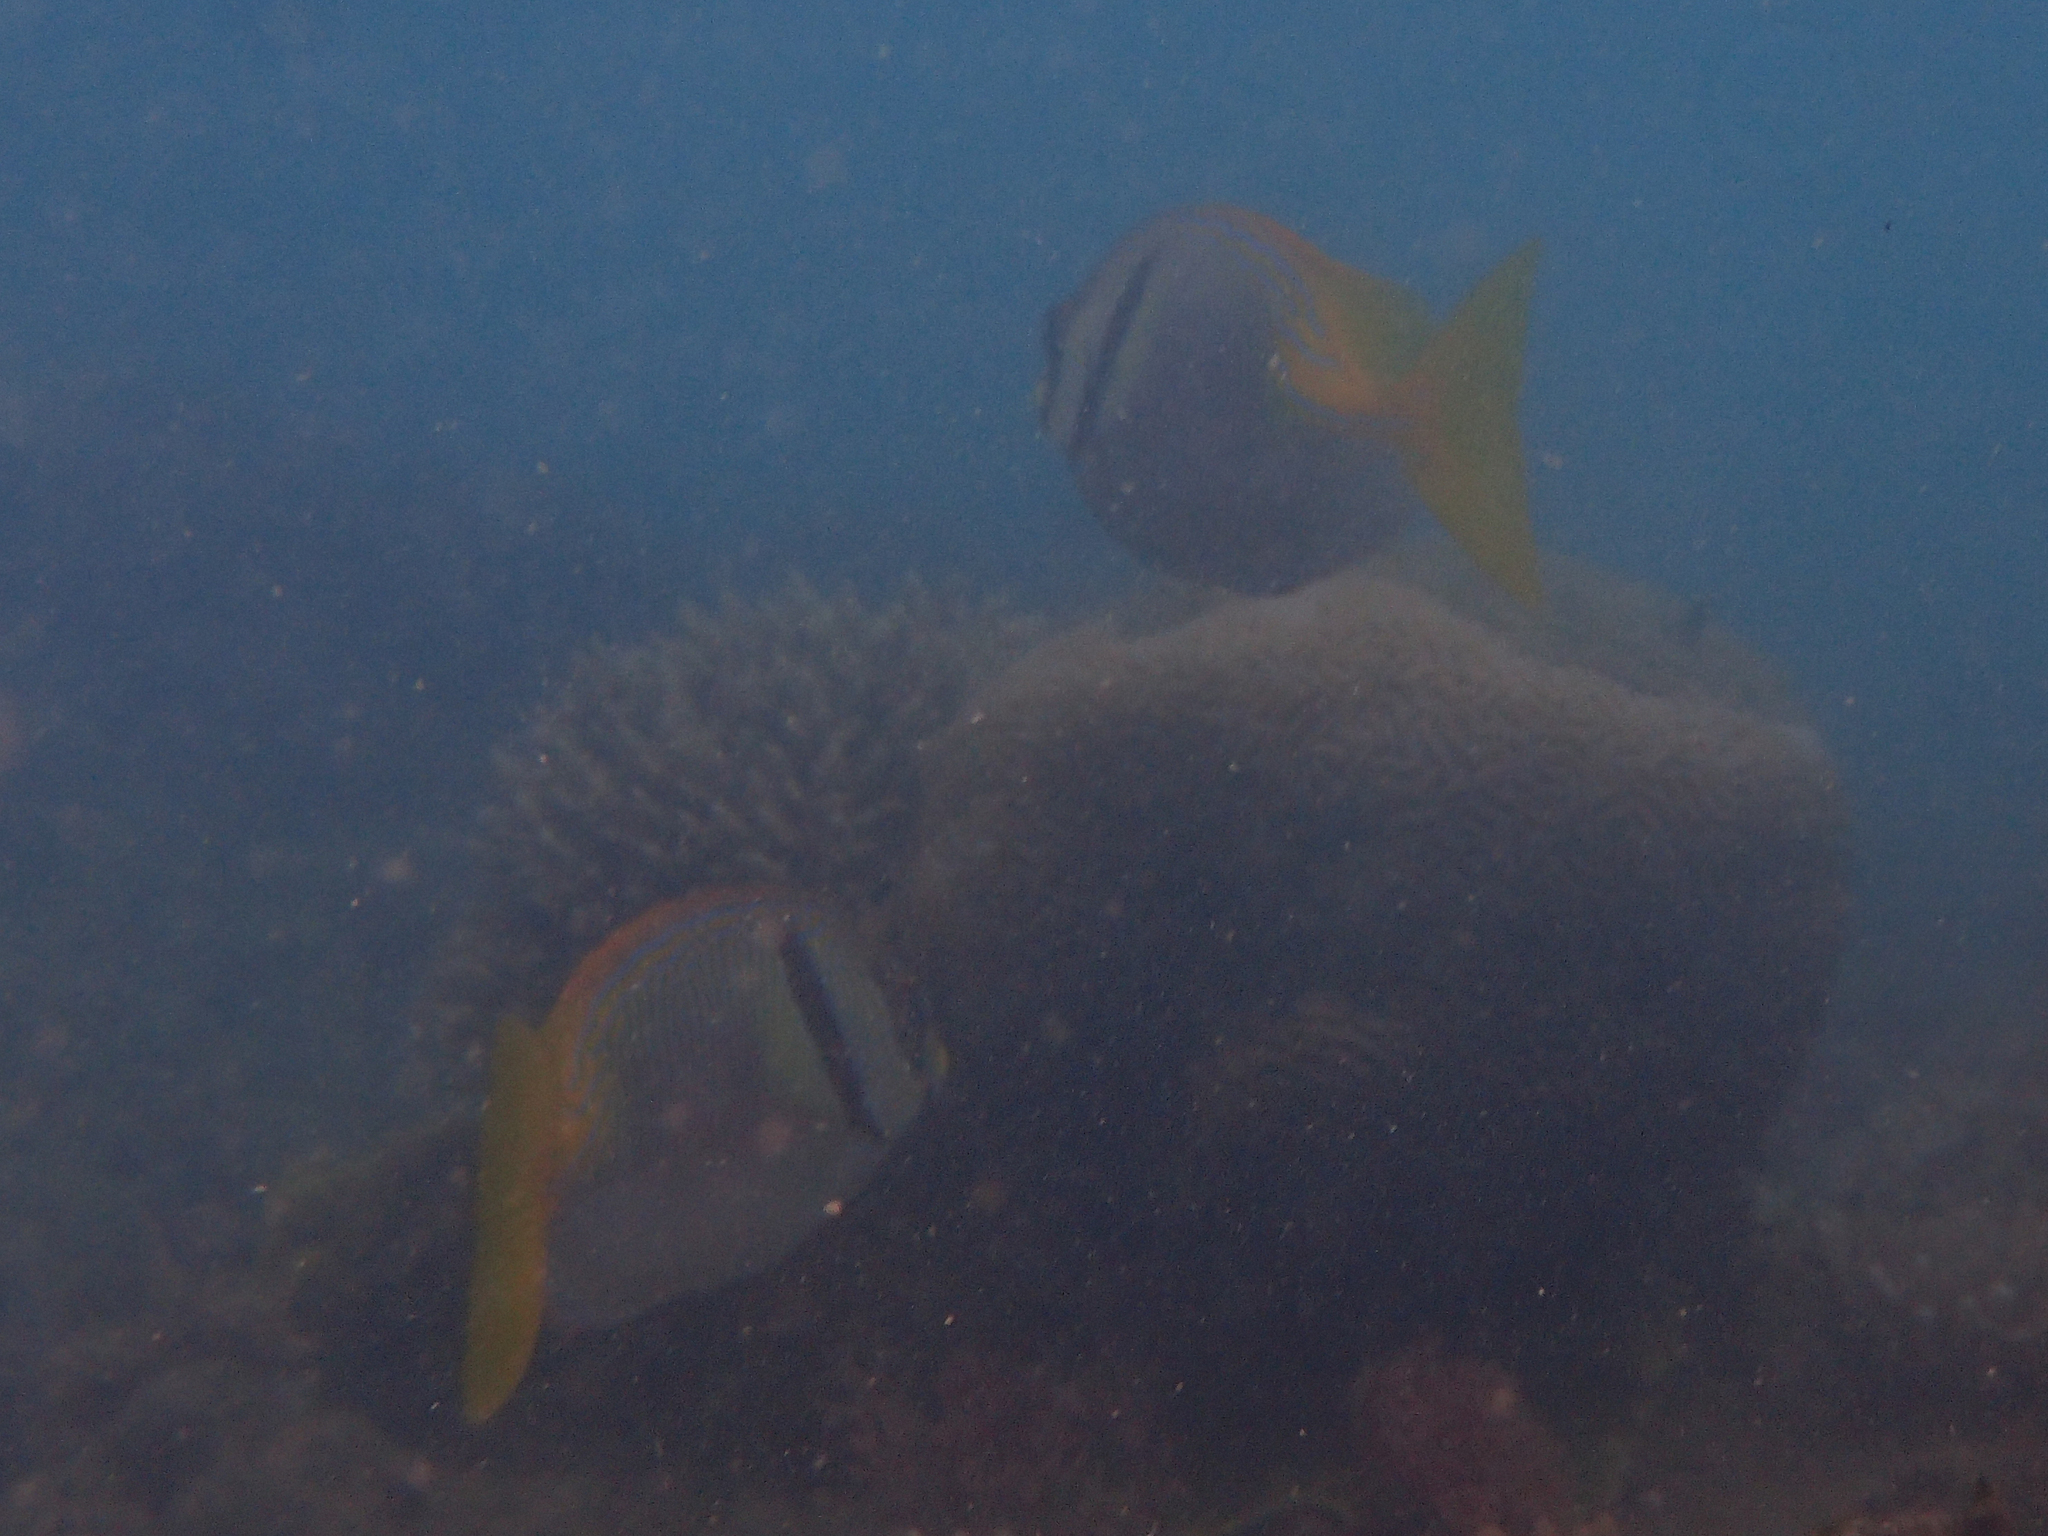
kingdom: Animalia
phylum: Chordata
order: Perciformes
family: Siganidae
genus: Siganus
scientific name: Siganus doliatus
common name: Barred spinefoot
